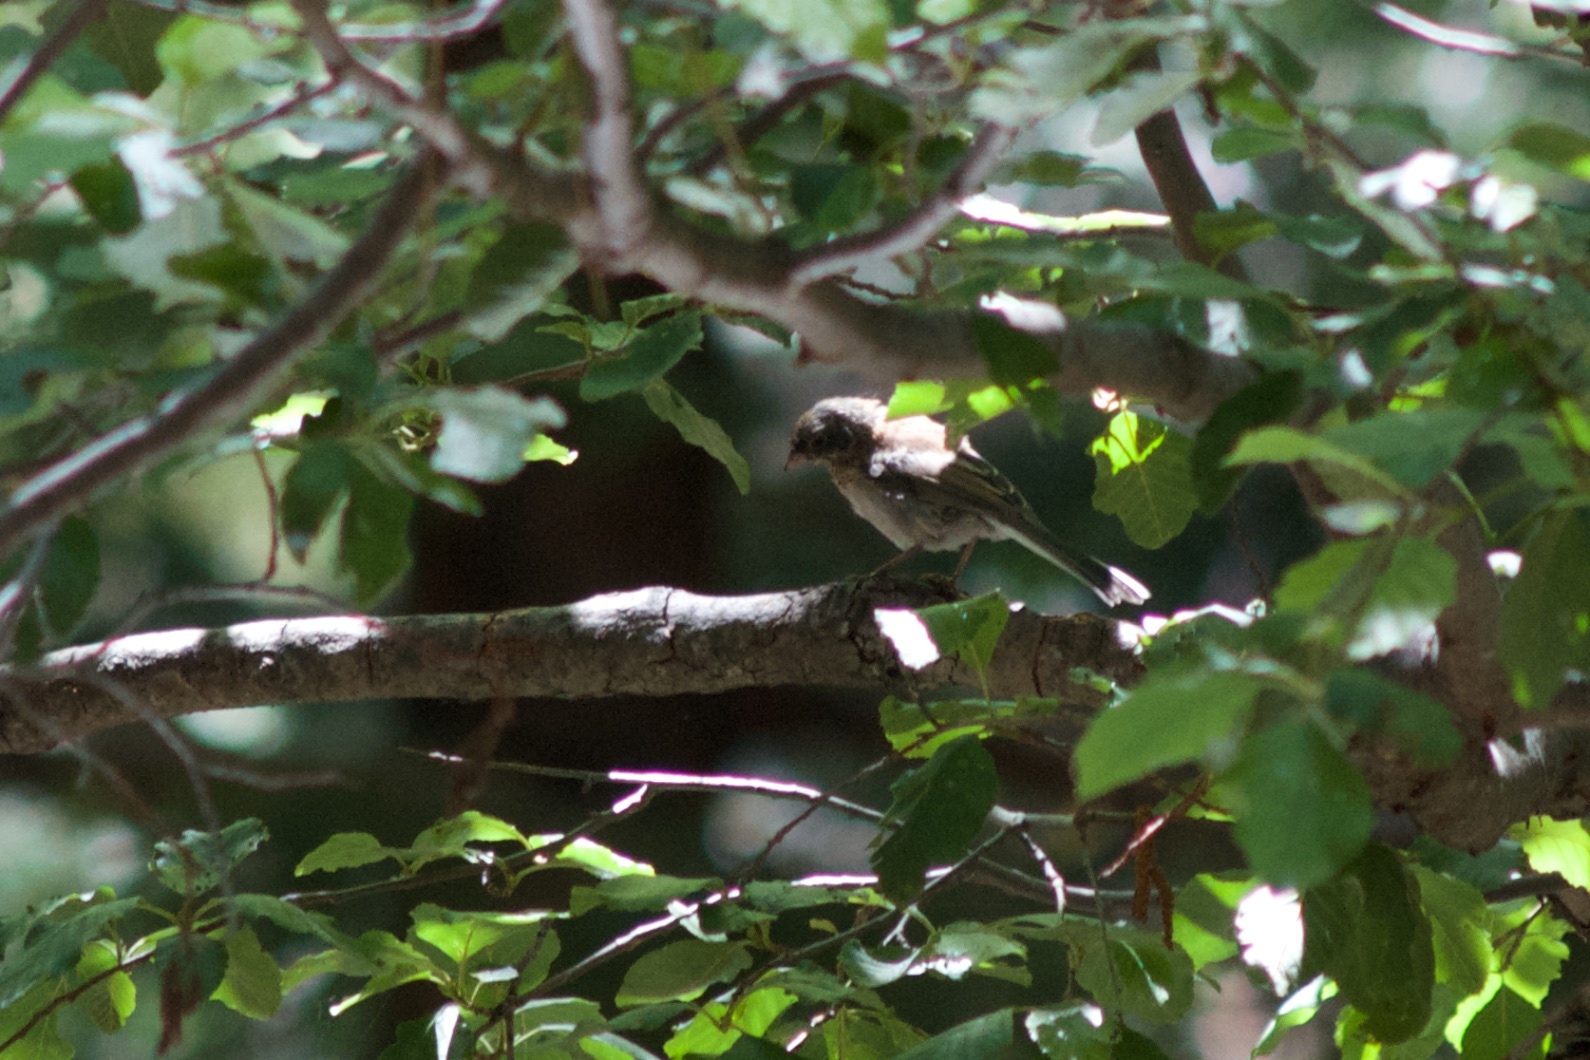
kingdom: Animalia
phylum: Chordata
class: Aves
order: Passeriformes
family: Passerellidae
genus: Junco
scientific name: Junco hyemalis
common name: Dark-eyed junco
